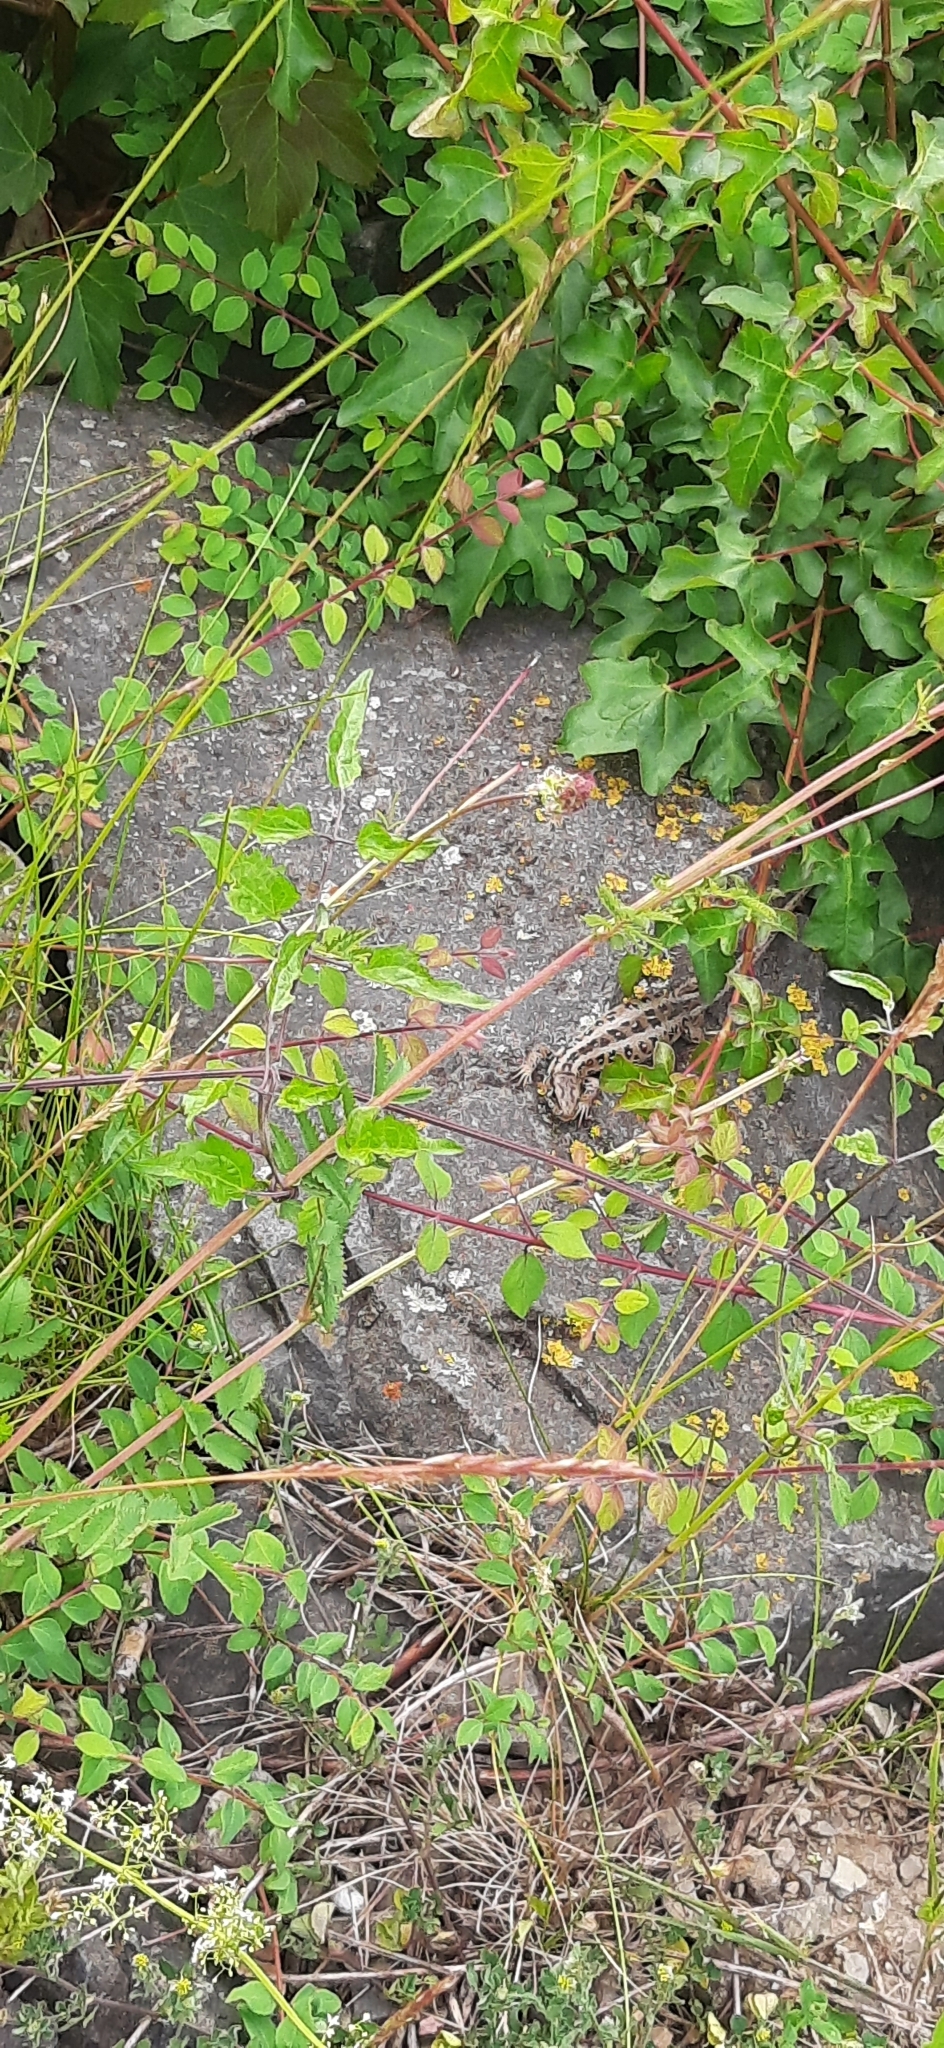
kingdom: Animalia
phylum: Chordata
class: Squamata
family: Lacertidae
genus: Lacerta
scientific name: Lacerta agilis
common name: Sand lizard
